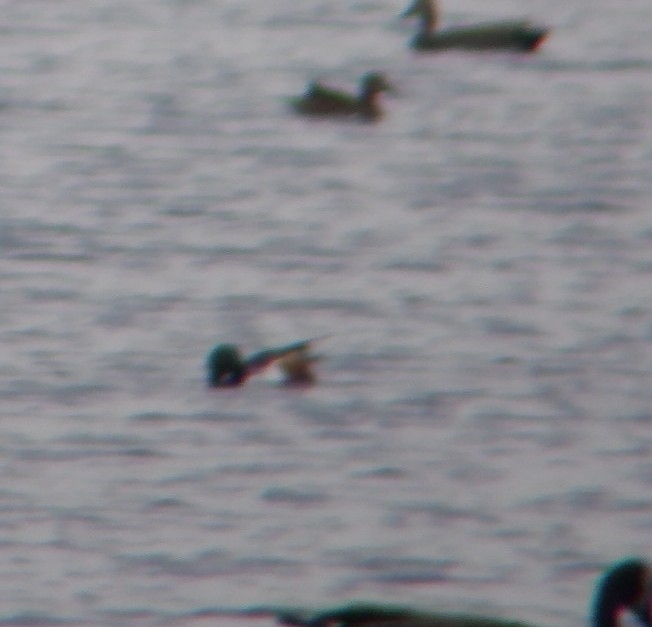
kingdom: Animalia
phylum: Chordata
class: Aves
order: Anseriformes
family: Anatidae
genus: Spatula
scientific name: Spatula clypeata
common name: Northern shoveler
